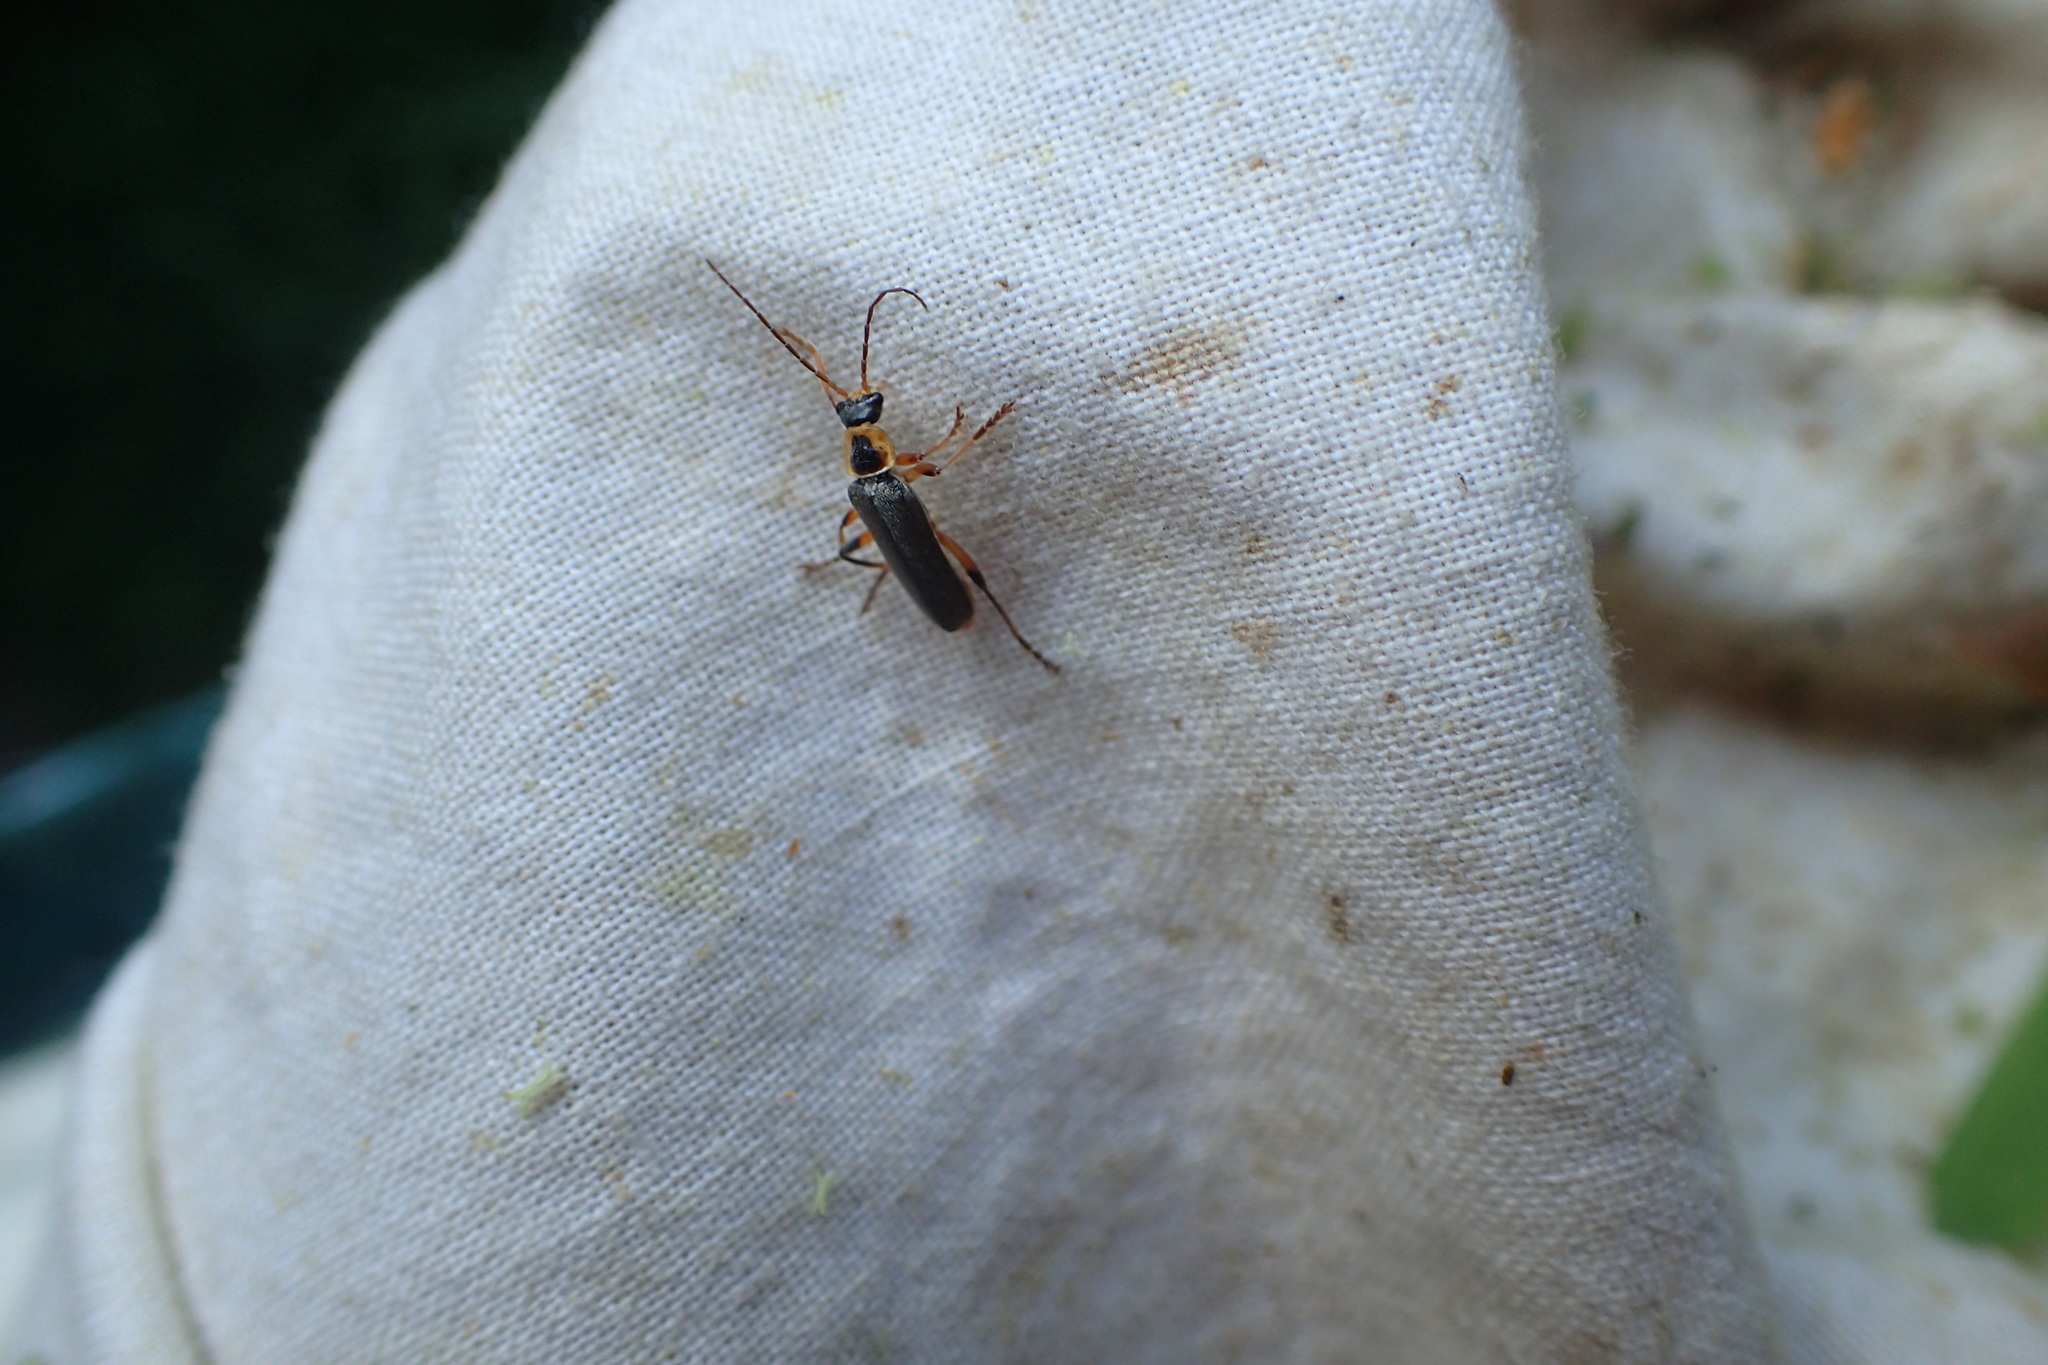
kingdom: Animalia
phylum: Arthropoda
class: Insecta
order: Coleoptera
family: Cantharidae
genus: Cantharis
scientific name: Cantharis nigricans
